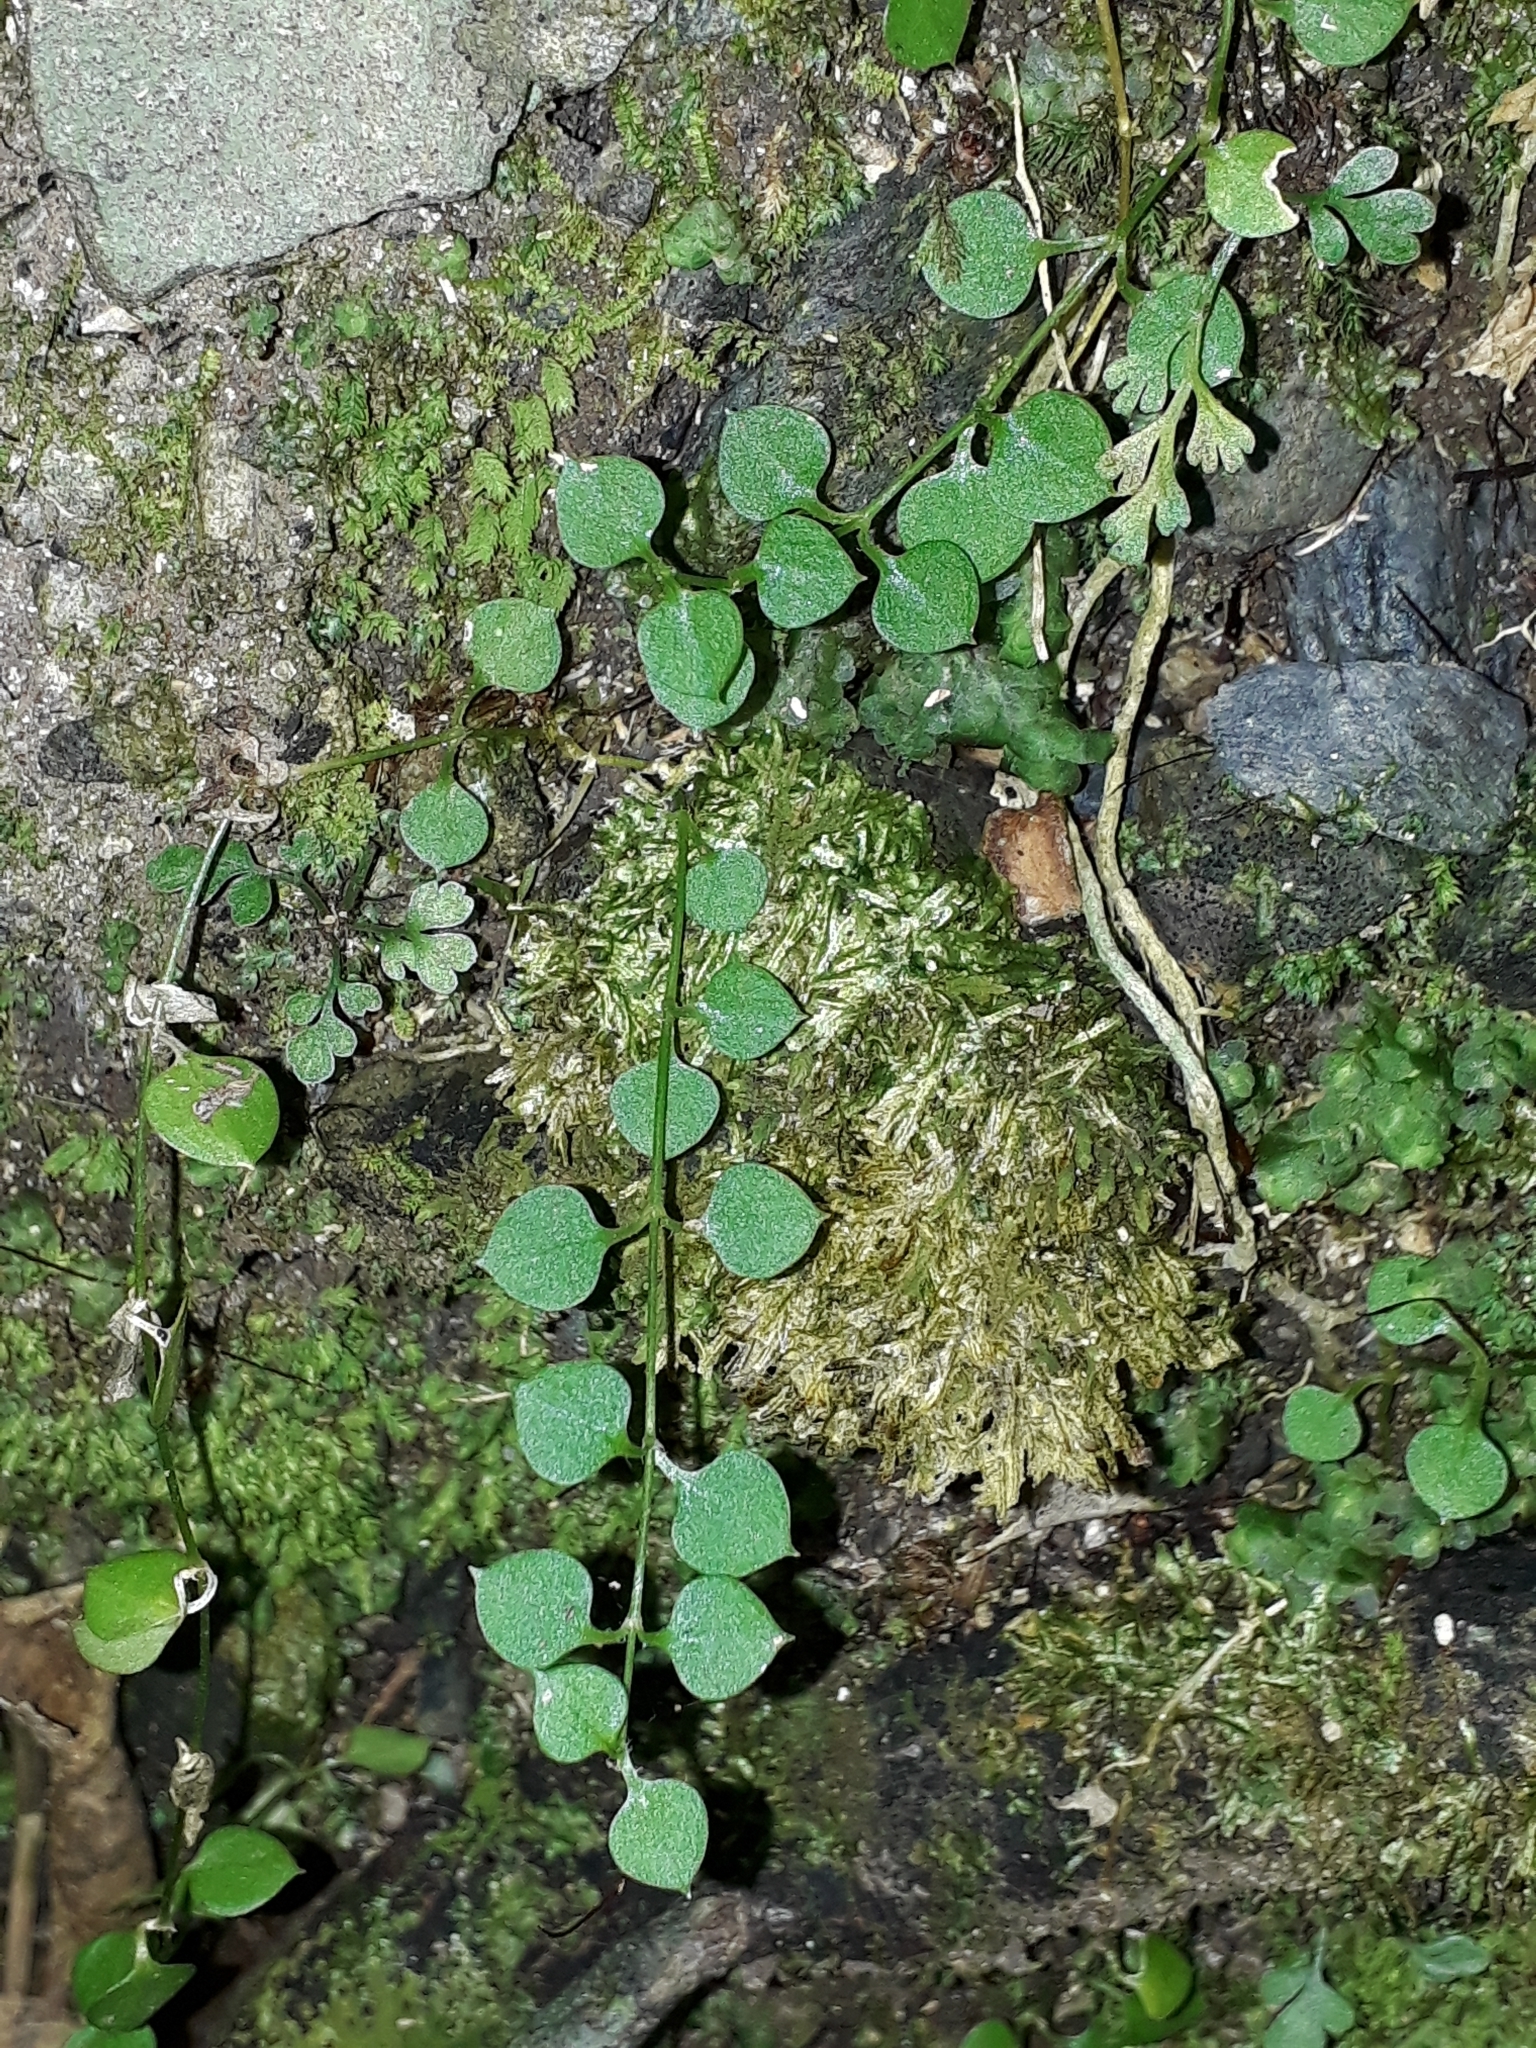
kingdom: Plantae
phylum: Tracheophyta
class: Magnoliopsida
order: Caryophyllales
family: Caryophyllaceae
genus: Stellaria
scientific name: Stellaria parviflora
